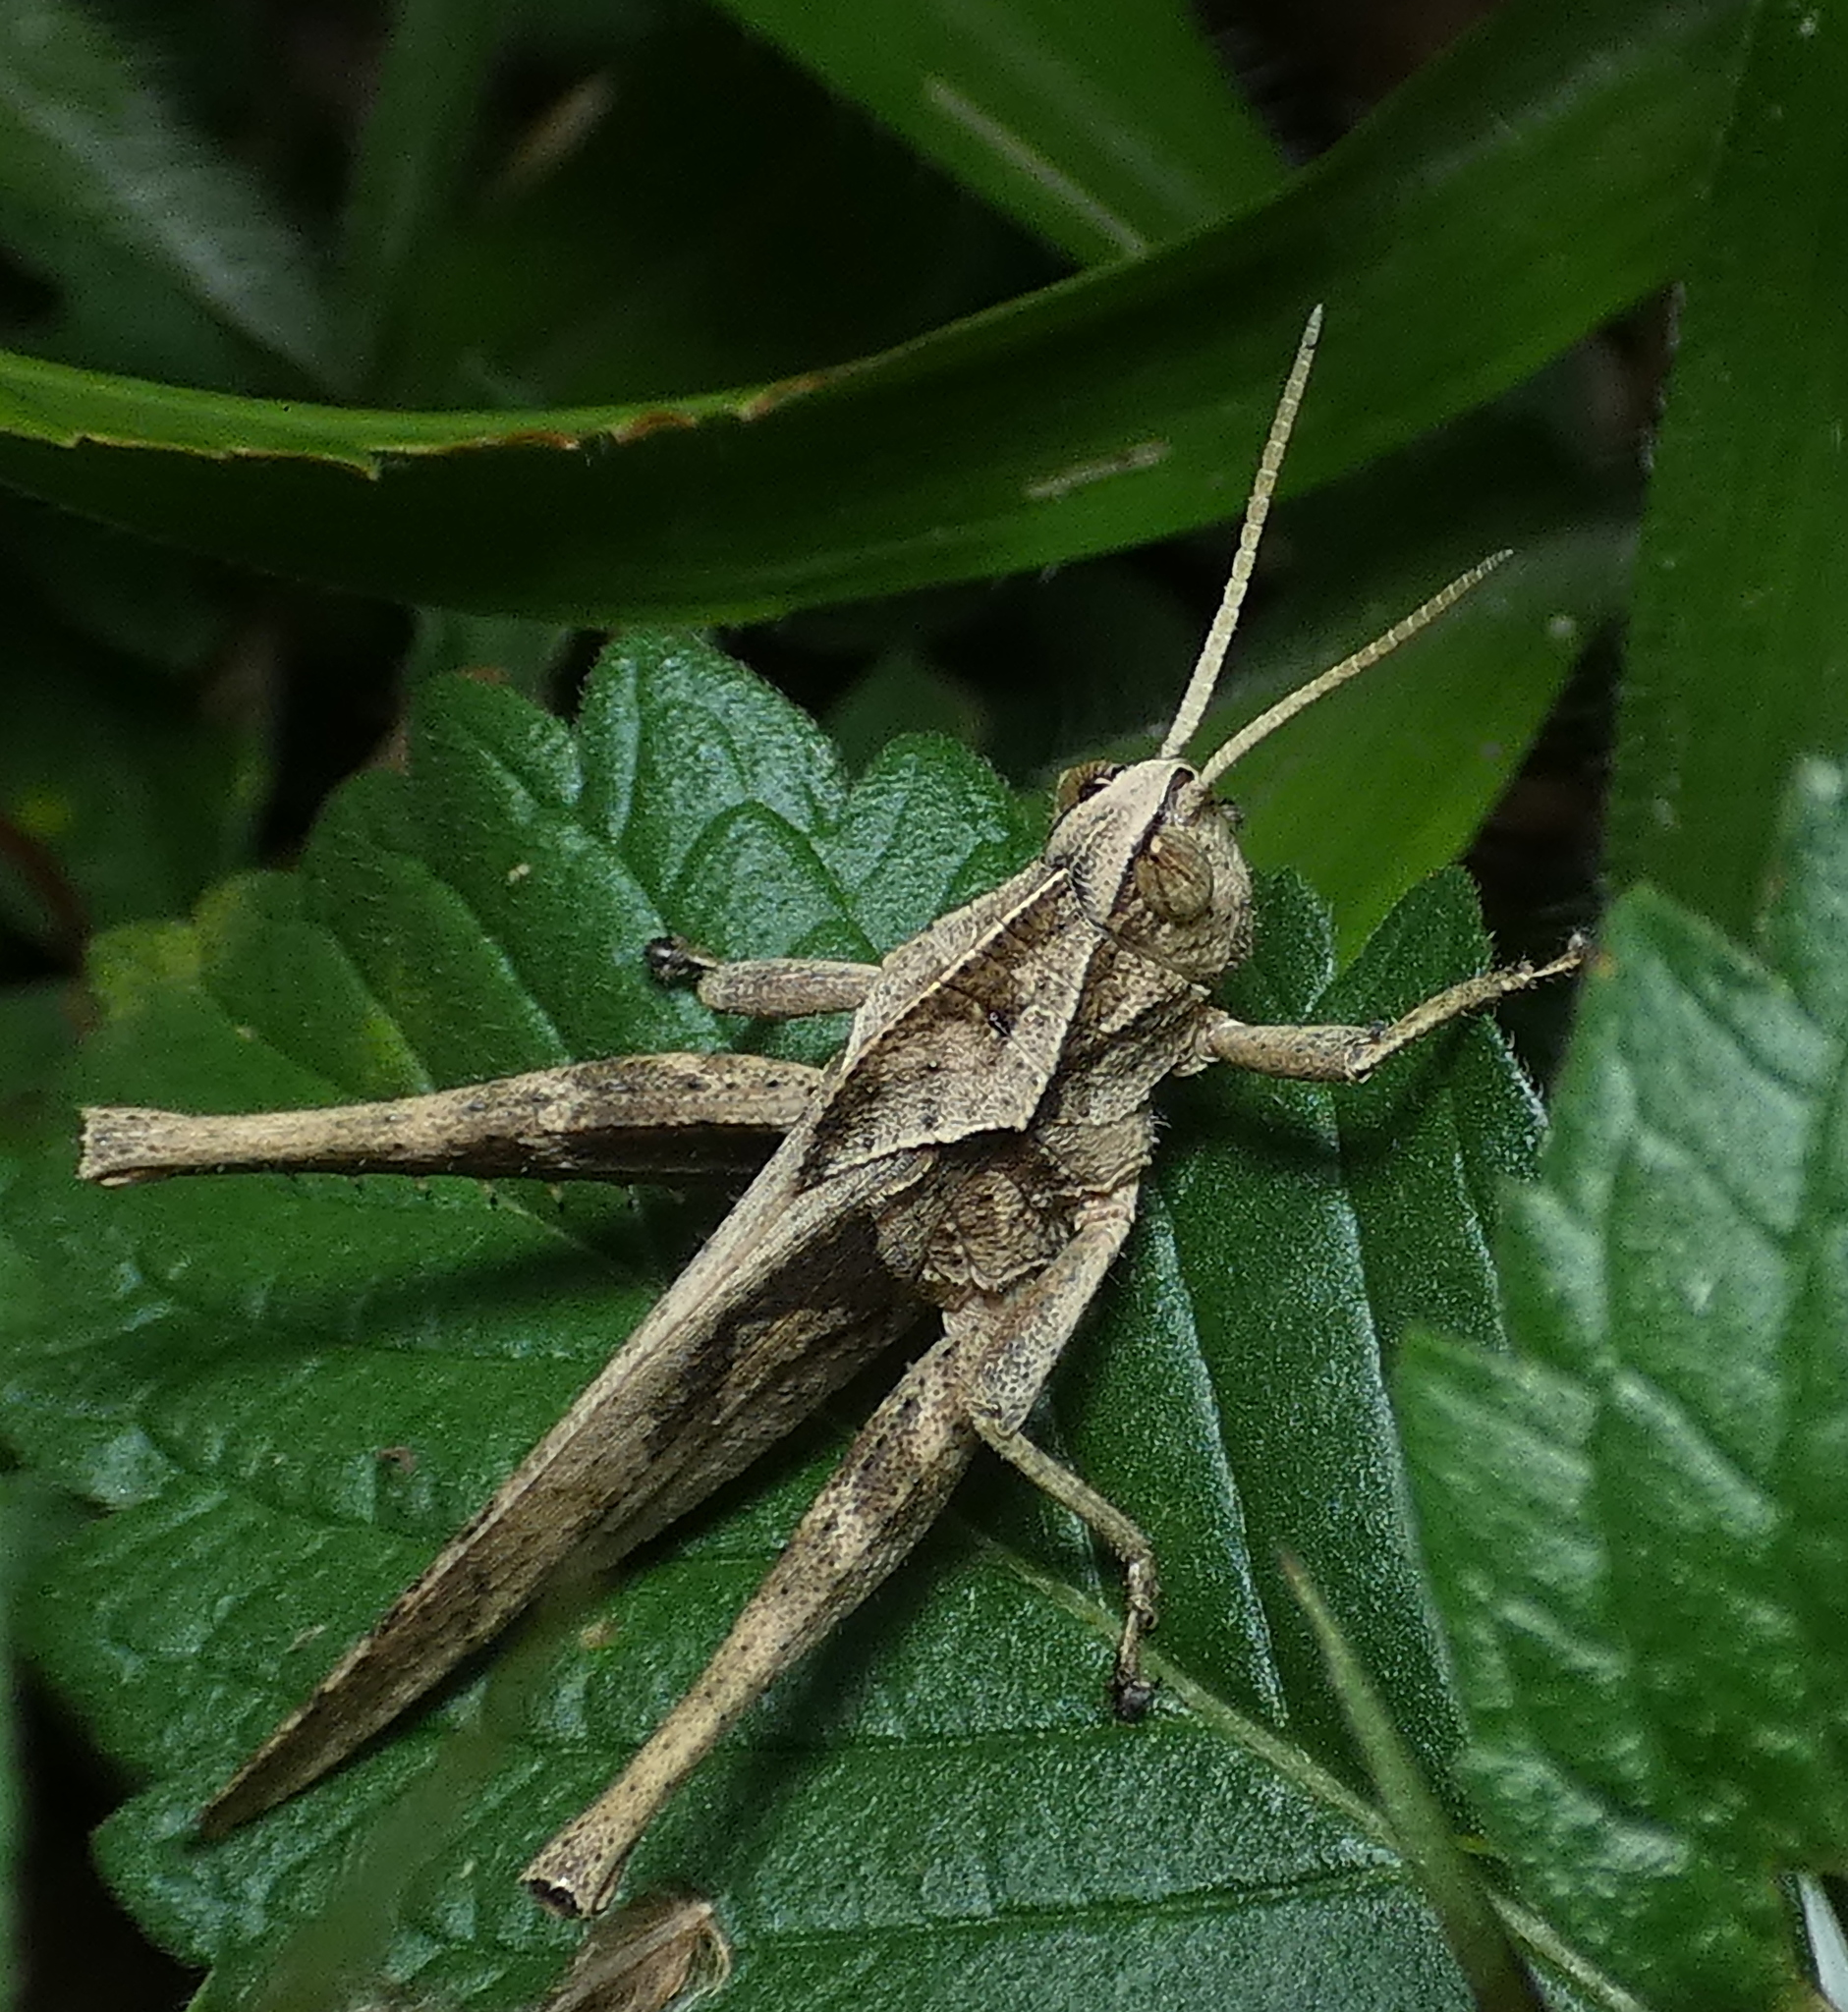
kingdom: Animalia
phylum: Arthropoda
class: Insecta
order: Orthoptera
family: Romaleidae
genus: Xyleus
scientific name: Xyleus discoideus
